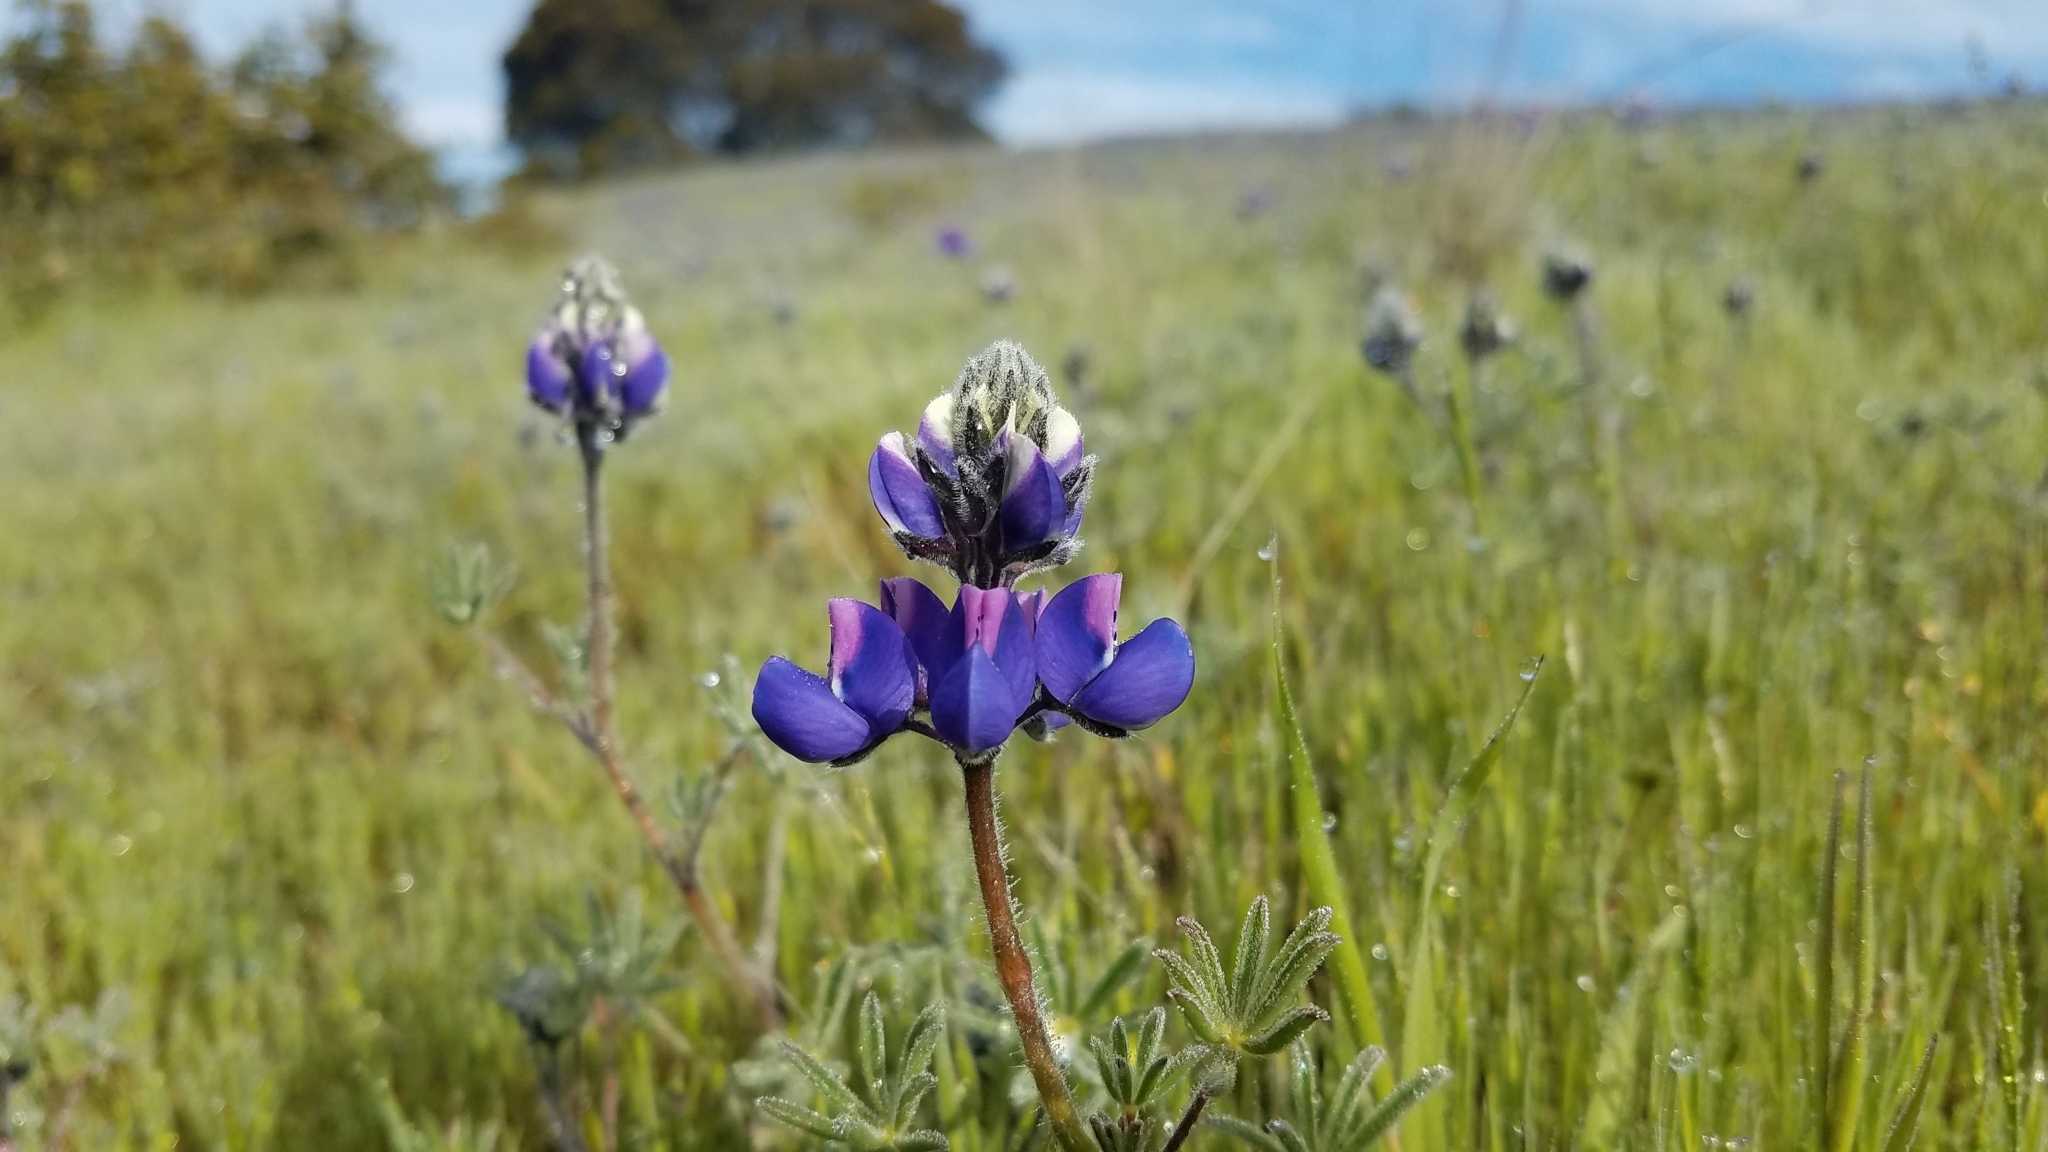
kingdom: Plantae
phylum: Tracheophyta
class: Magnoliopsida
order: Fabales
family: Fabaceae
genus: Lupinus
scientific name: Lupinus nanus
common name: Orean blue lupin
